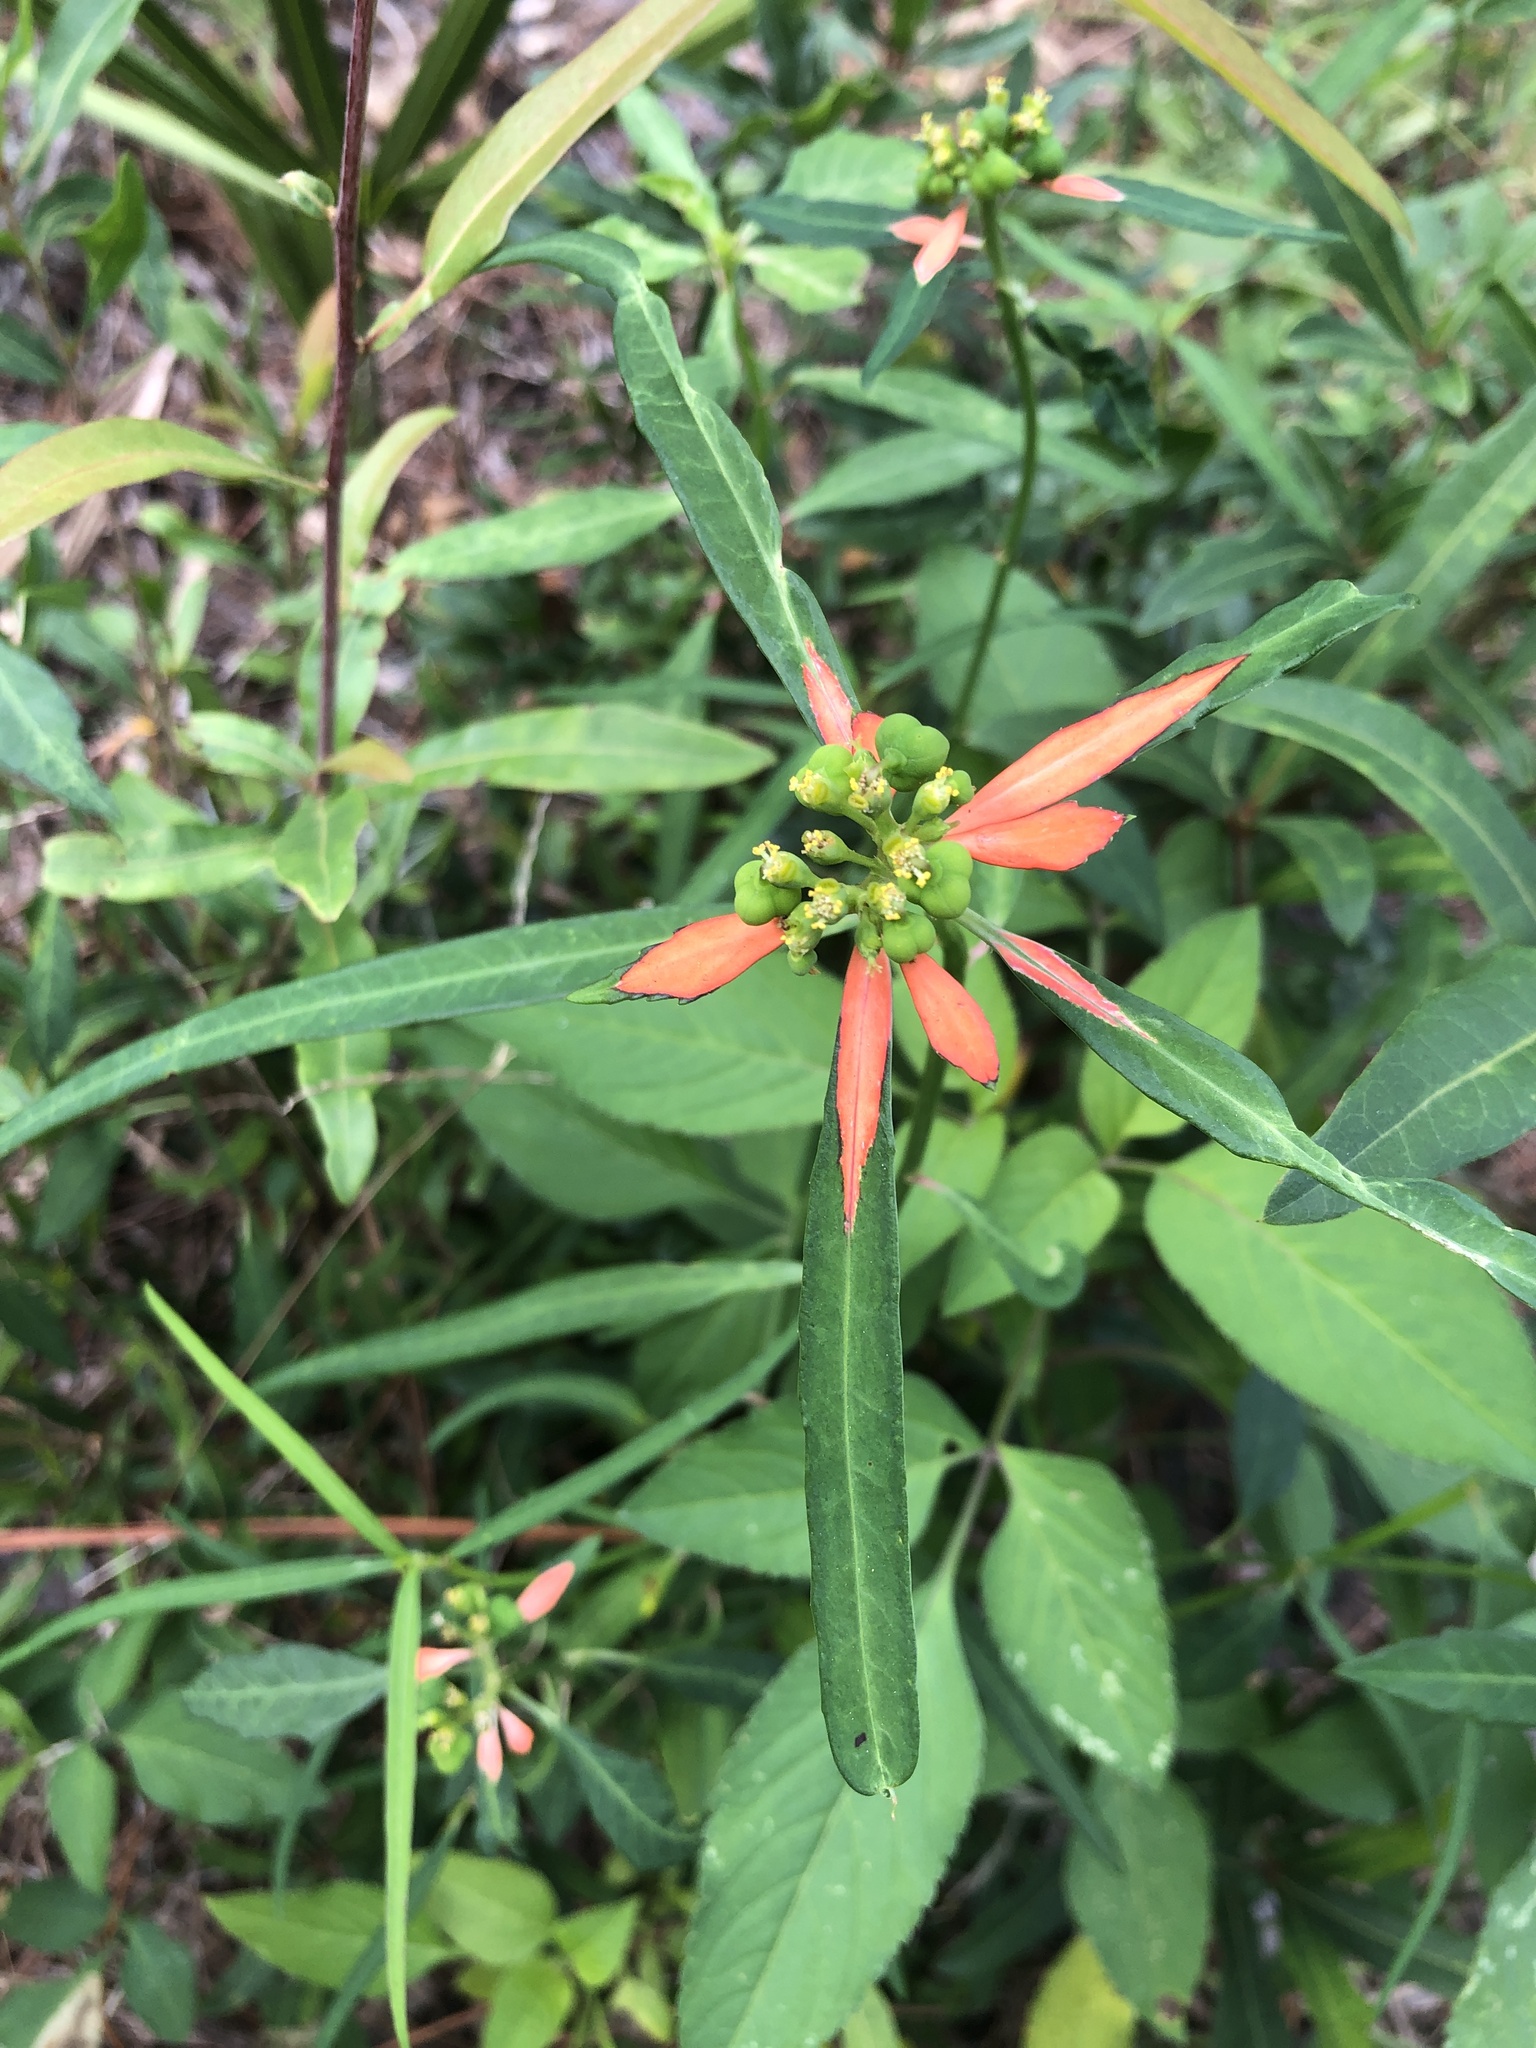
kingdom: Plantae
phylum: Tracheophyta
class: Magnoliopsida
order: Malpighiales
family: Euphorbiaceae
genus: Euphorbia
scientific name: Euphorbia heterophylla
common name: Mexican fireplant
